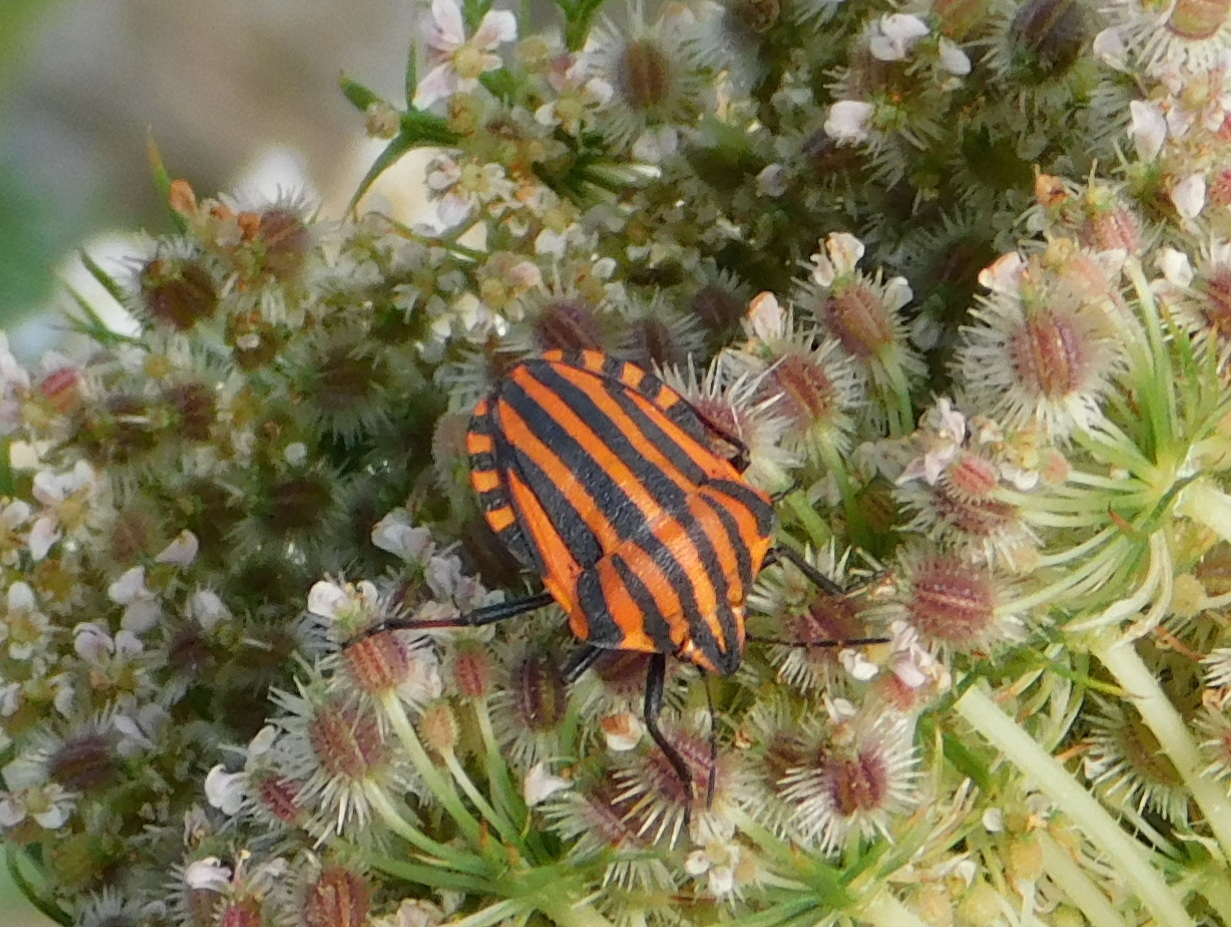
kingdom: Animalia
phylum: Arthropoda
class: Insecta
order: Hemiptera
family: Pentatomidae
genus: Graphosoma
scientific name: Graphosoma italicum
